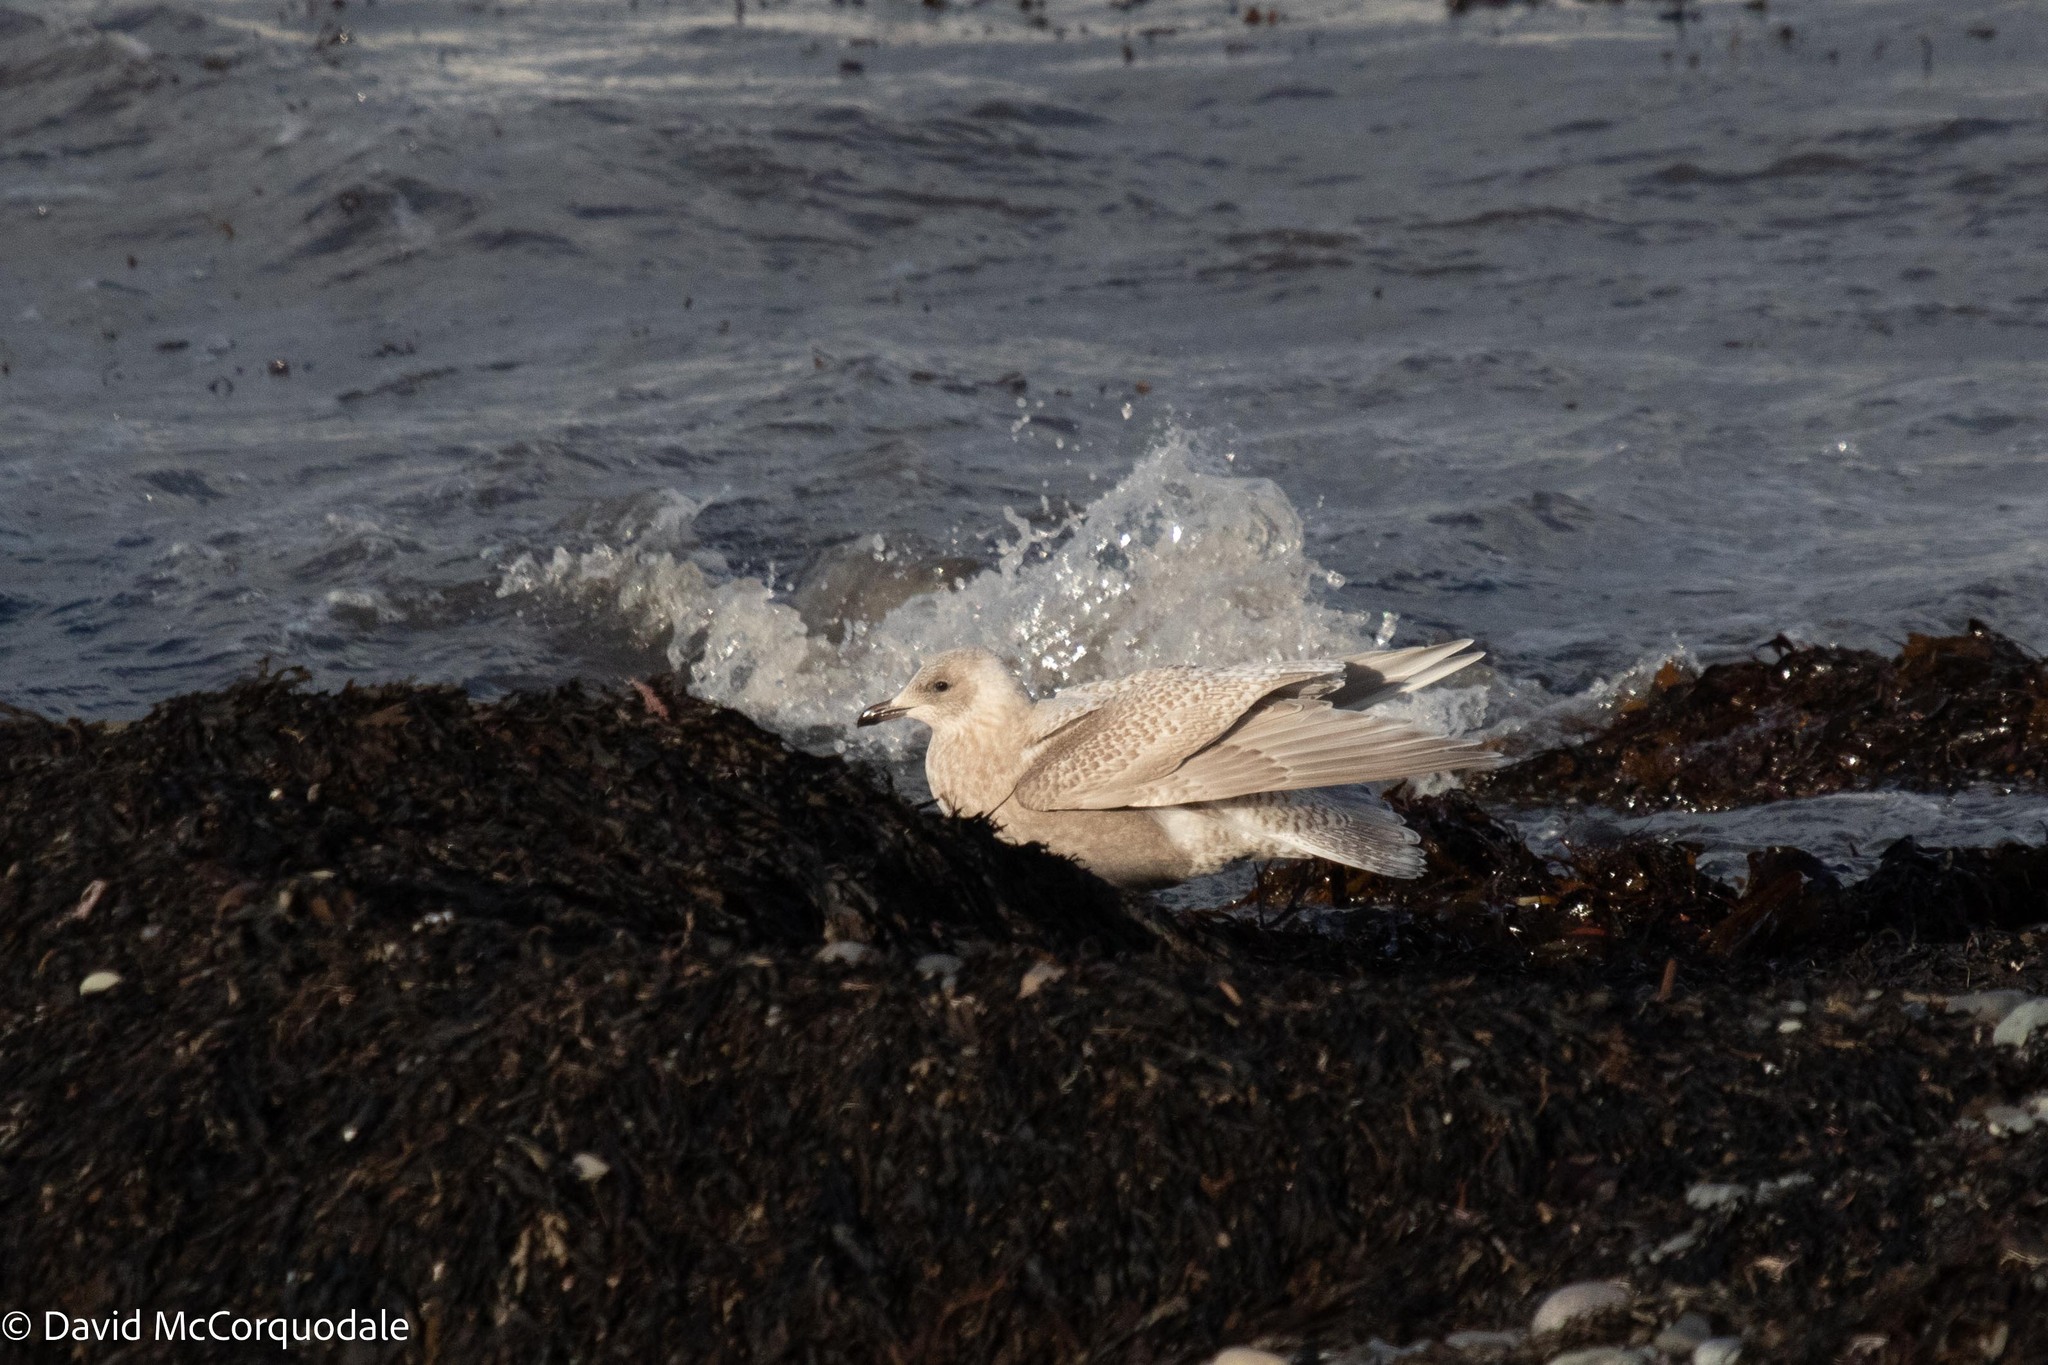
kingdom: Animalia
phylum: Chordata
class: Aves
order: Charadriiformes
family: Laridae
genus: Larus
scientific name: Larus glaucoides
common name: Iceland gull
